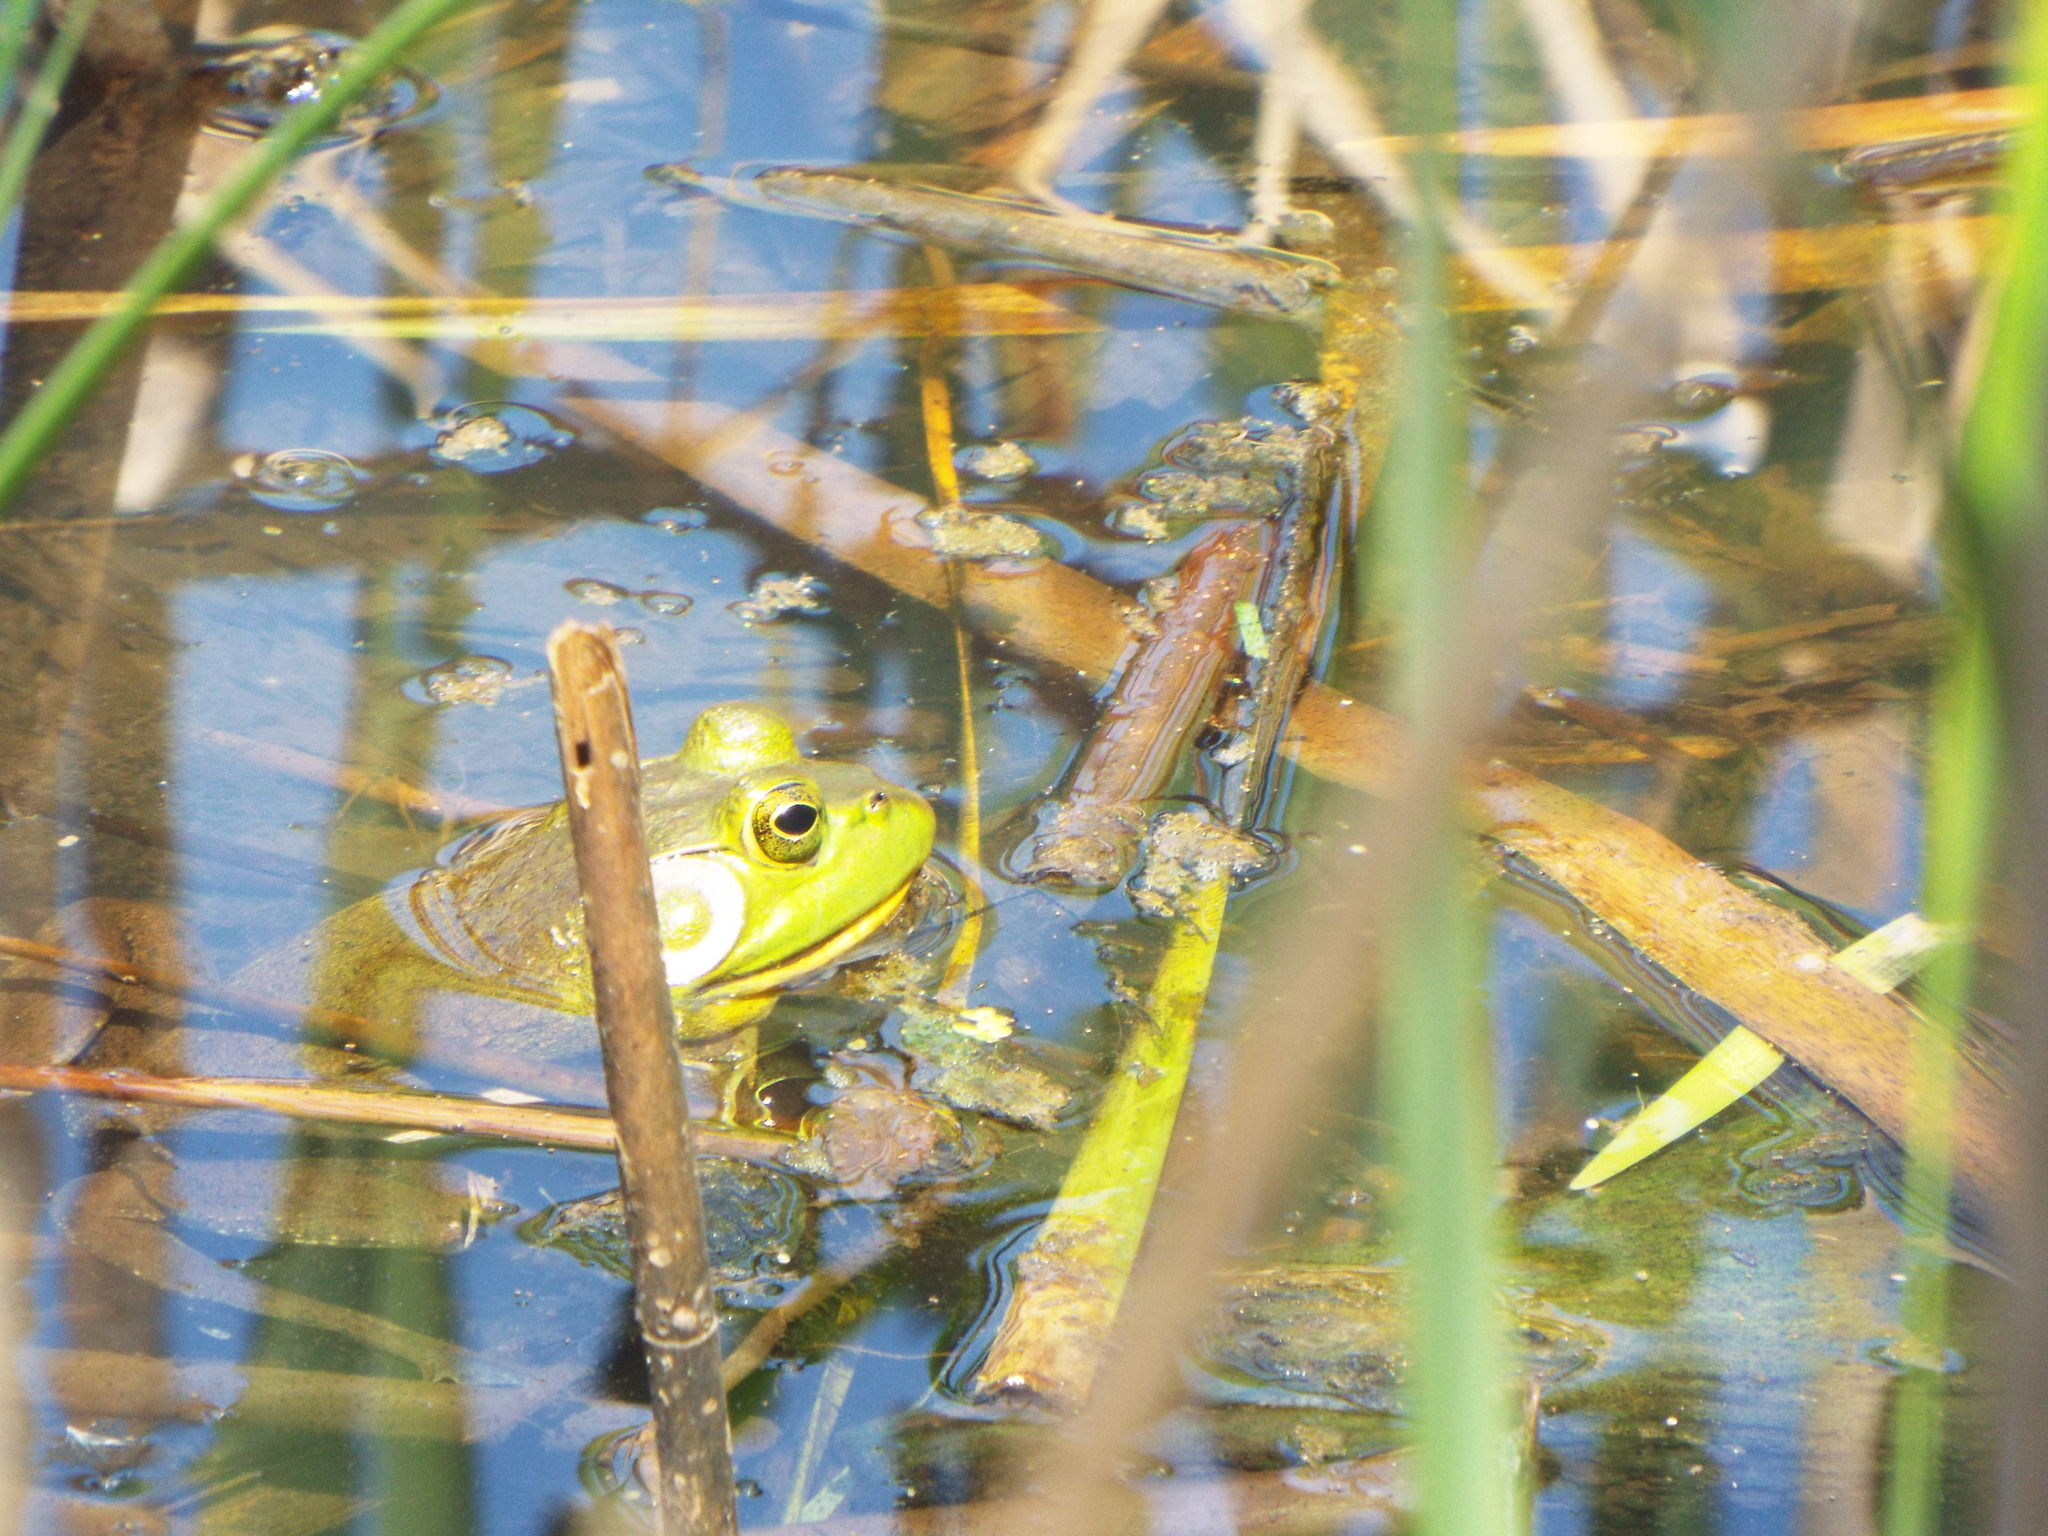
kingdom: Animalia
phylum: Chordata
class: Amphibia
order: Anura
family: Ranidae
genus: Lithobates
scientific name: Lithobates catesbeianus
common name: American bullfrog
